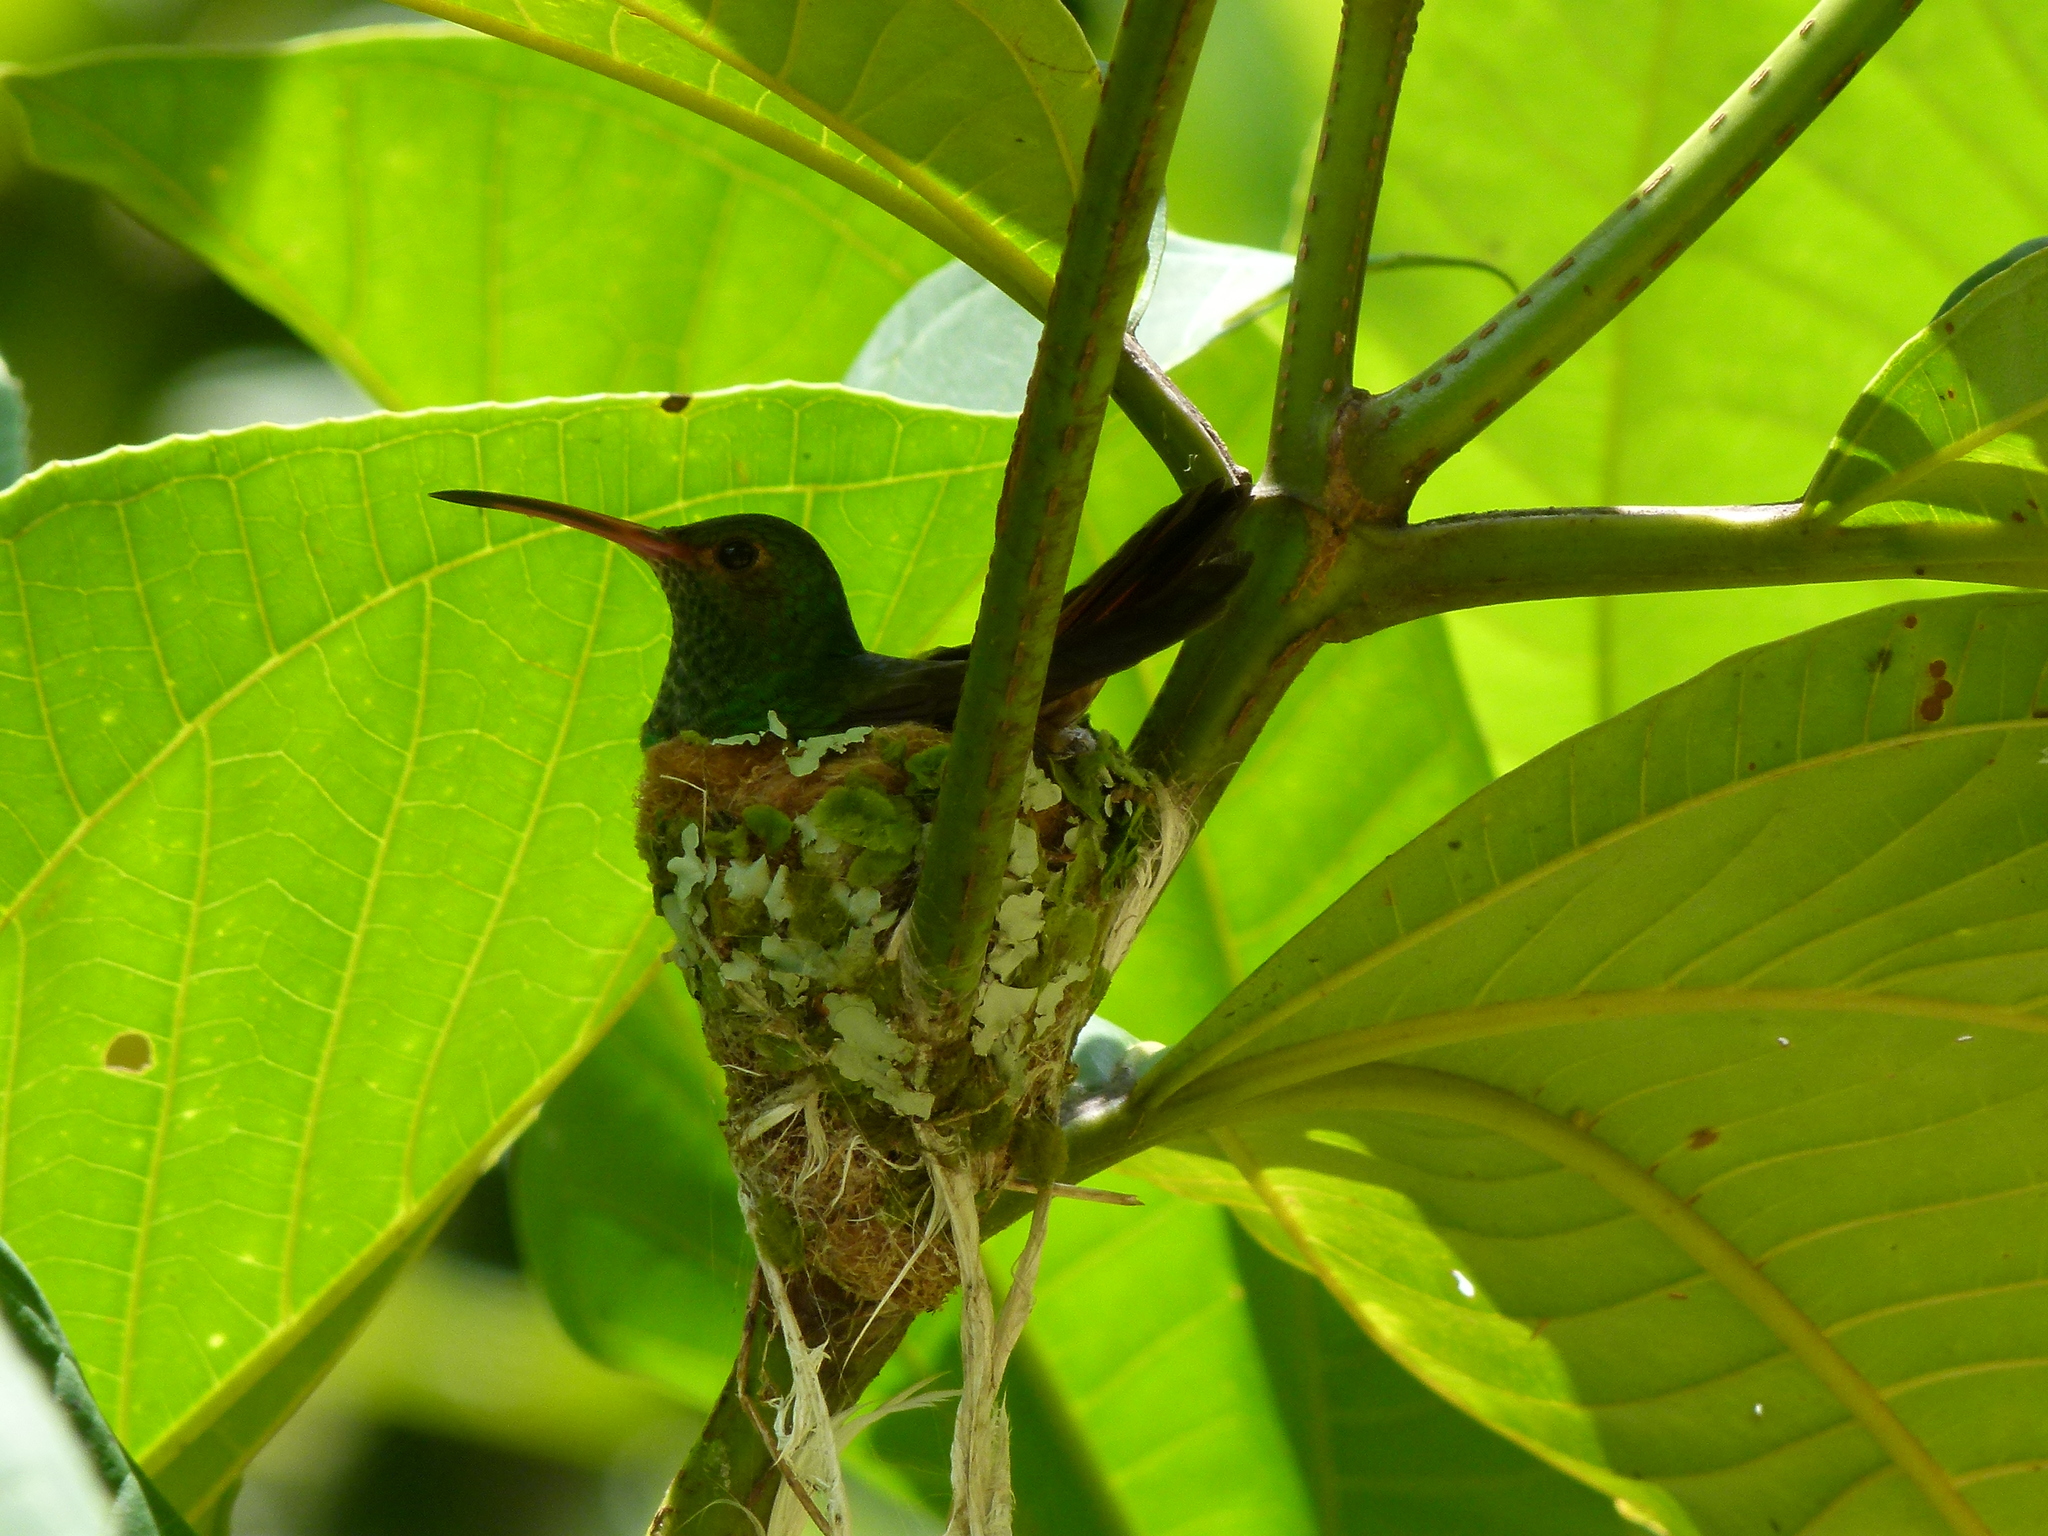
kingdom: Animalia
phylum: Chordata
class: Aves
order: Apodiformes
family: Trochilidae
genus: Amazilia
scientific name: Amazilia tzacatl
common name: Rufous-tailed hummingbird
